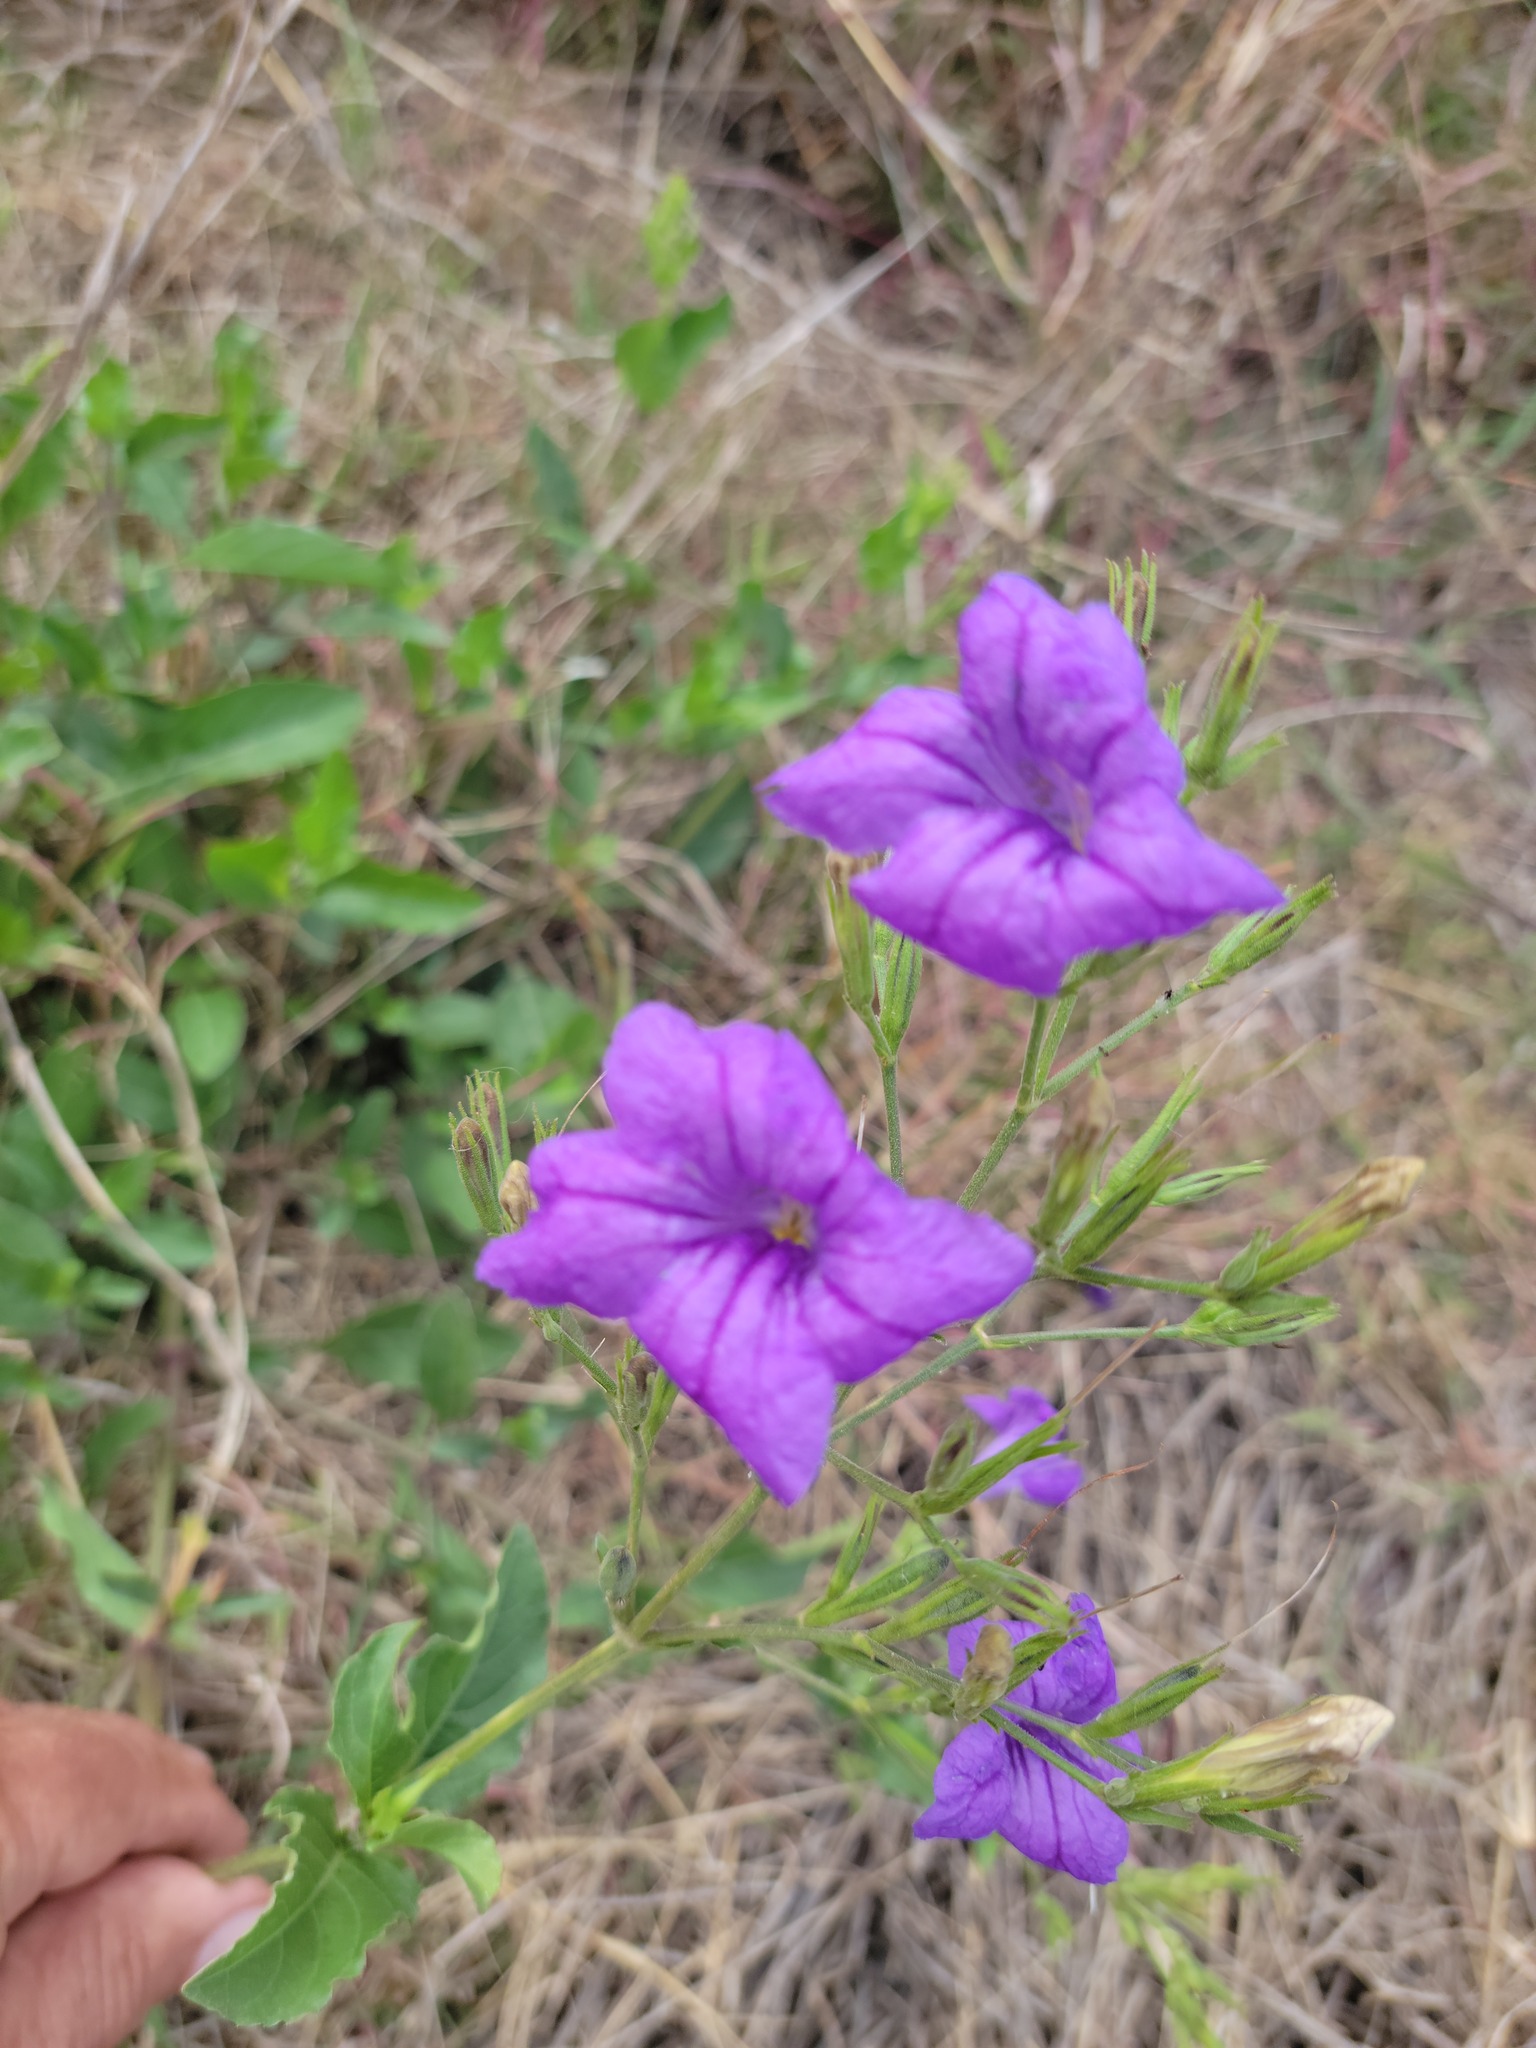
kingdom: Plantae
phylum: Tracheophyta
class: Magnoliopsida
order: Lamiales
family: Acanthaceae
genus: Ruellia
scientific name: Ruellia ciliatiflora
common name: Hairyflower wild petunia
